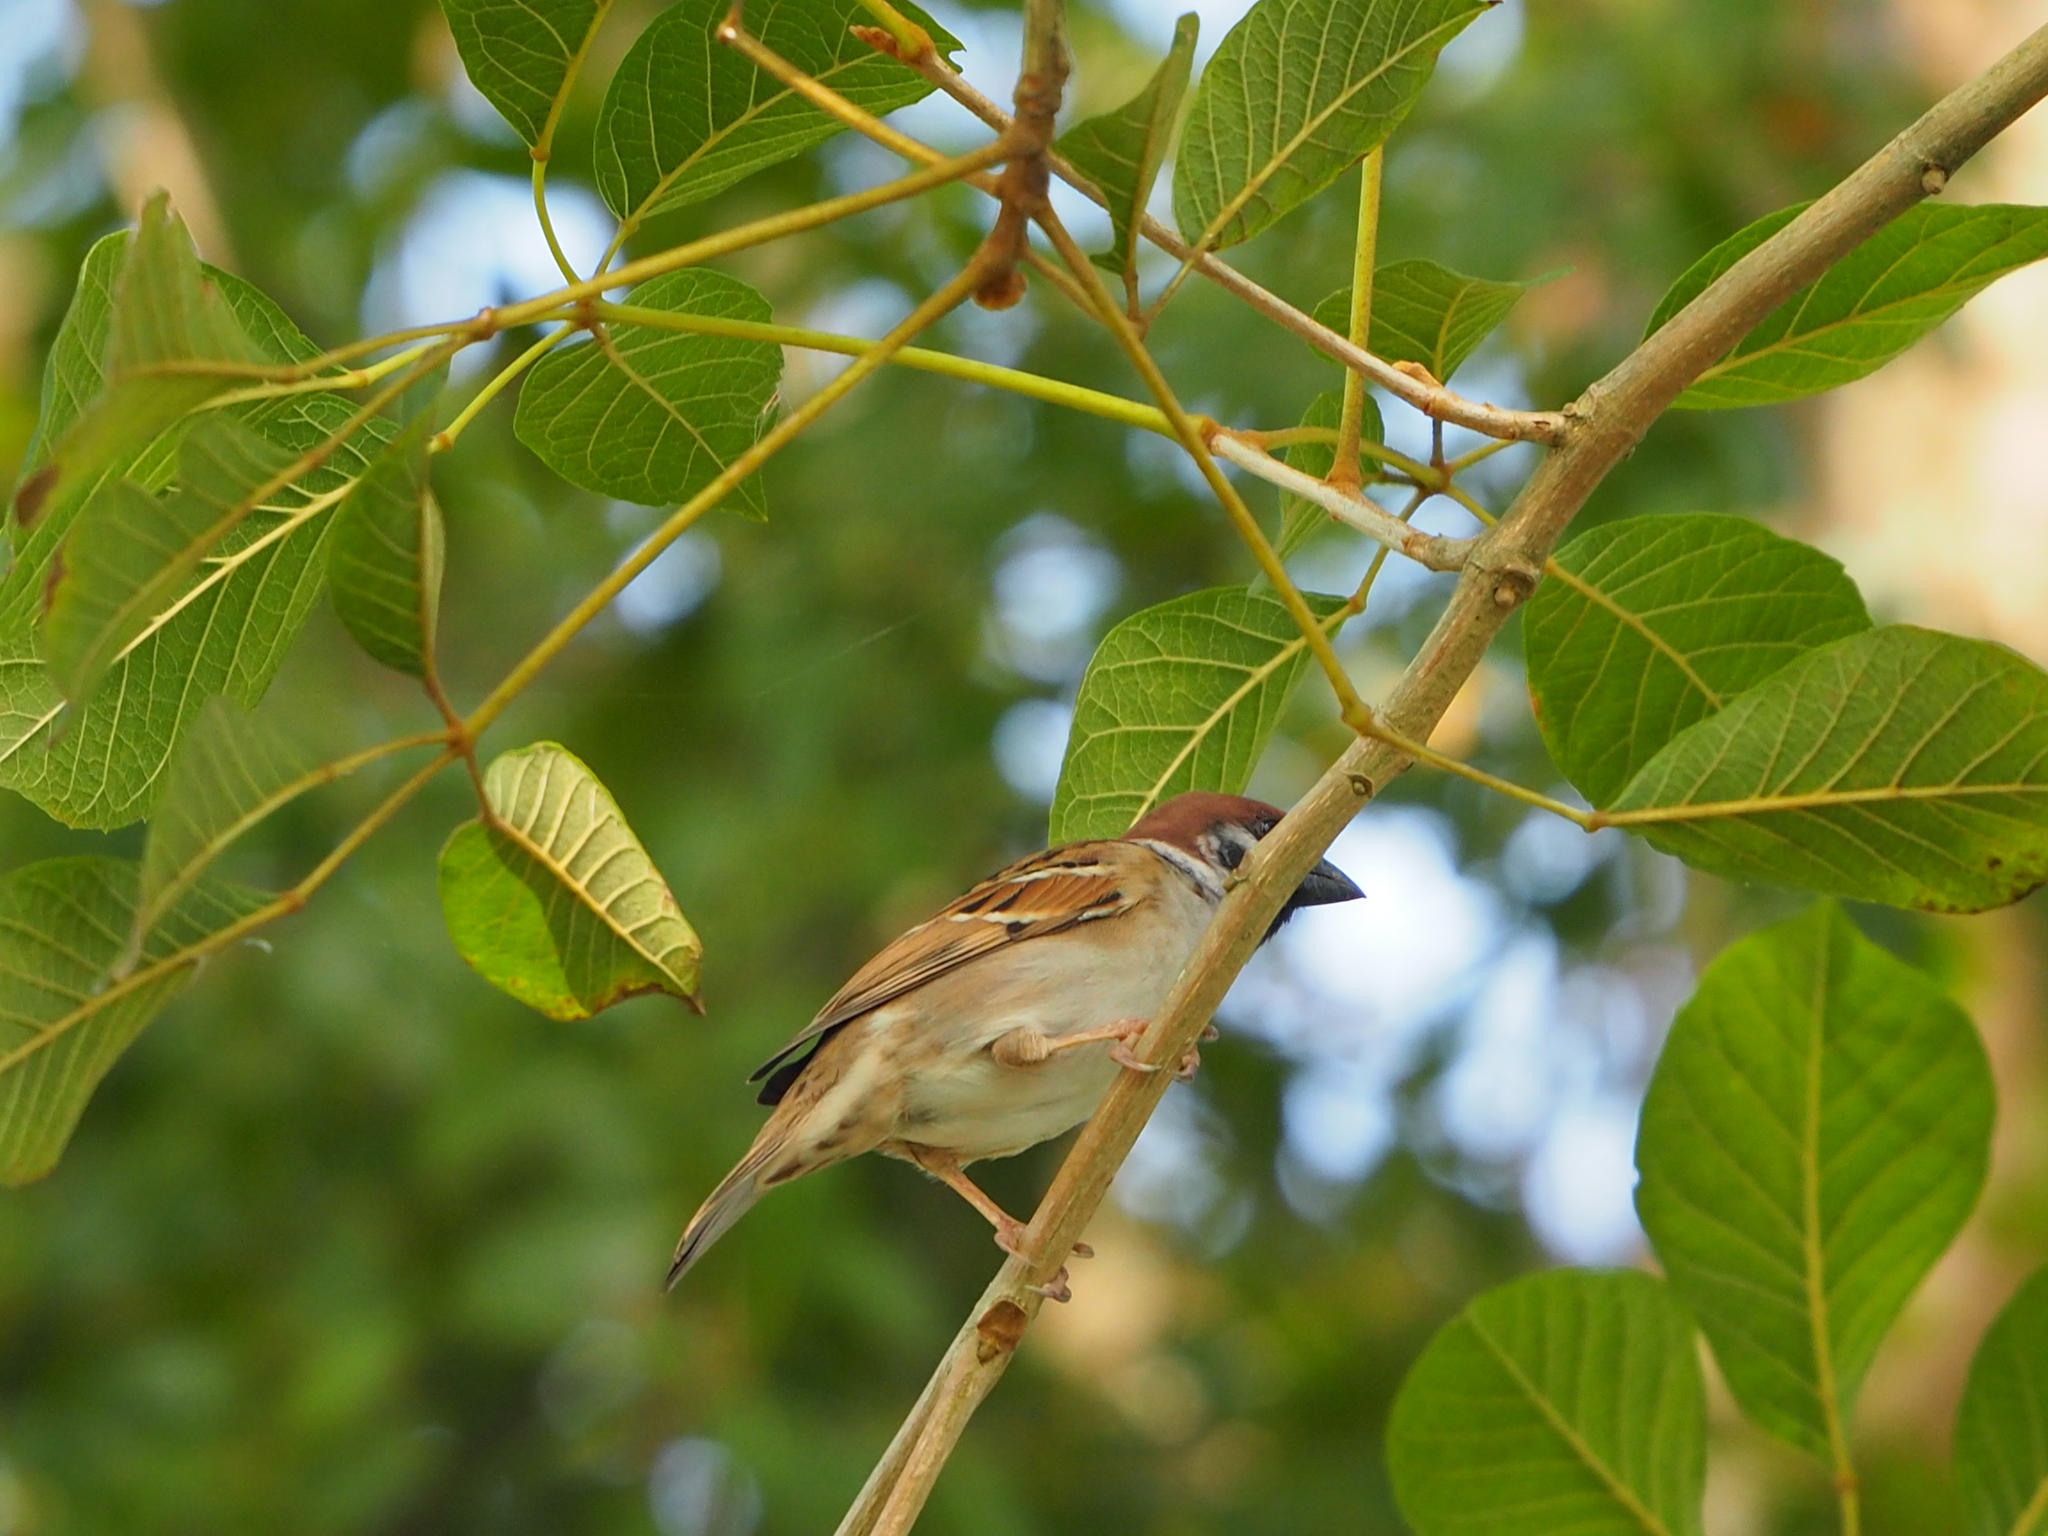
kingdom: Animalia
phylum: Chordata
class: Aves
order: Passeriformes
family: Passeridae
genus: Passer
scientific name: Passer montanus
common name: Eurasian tree sparrow
